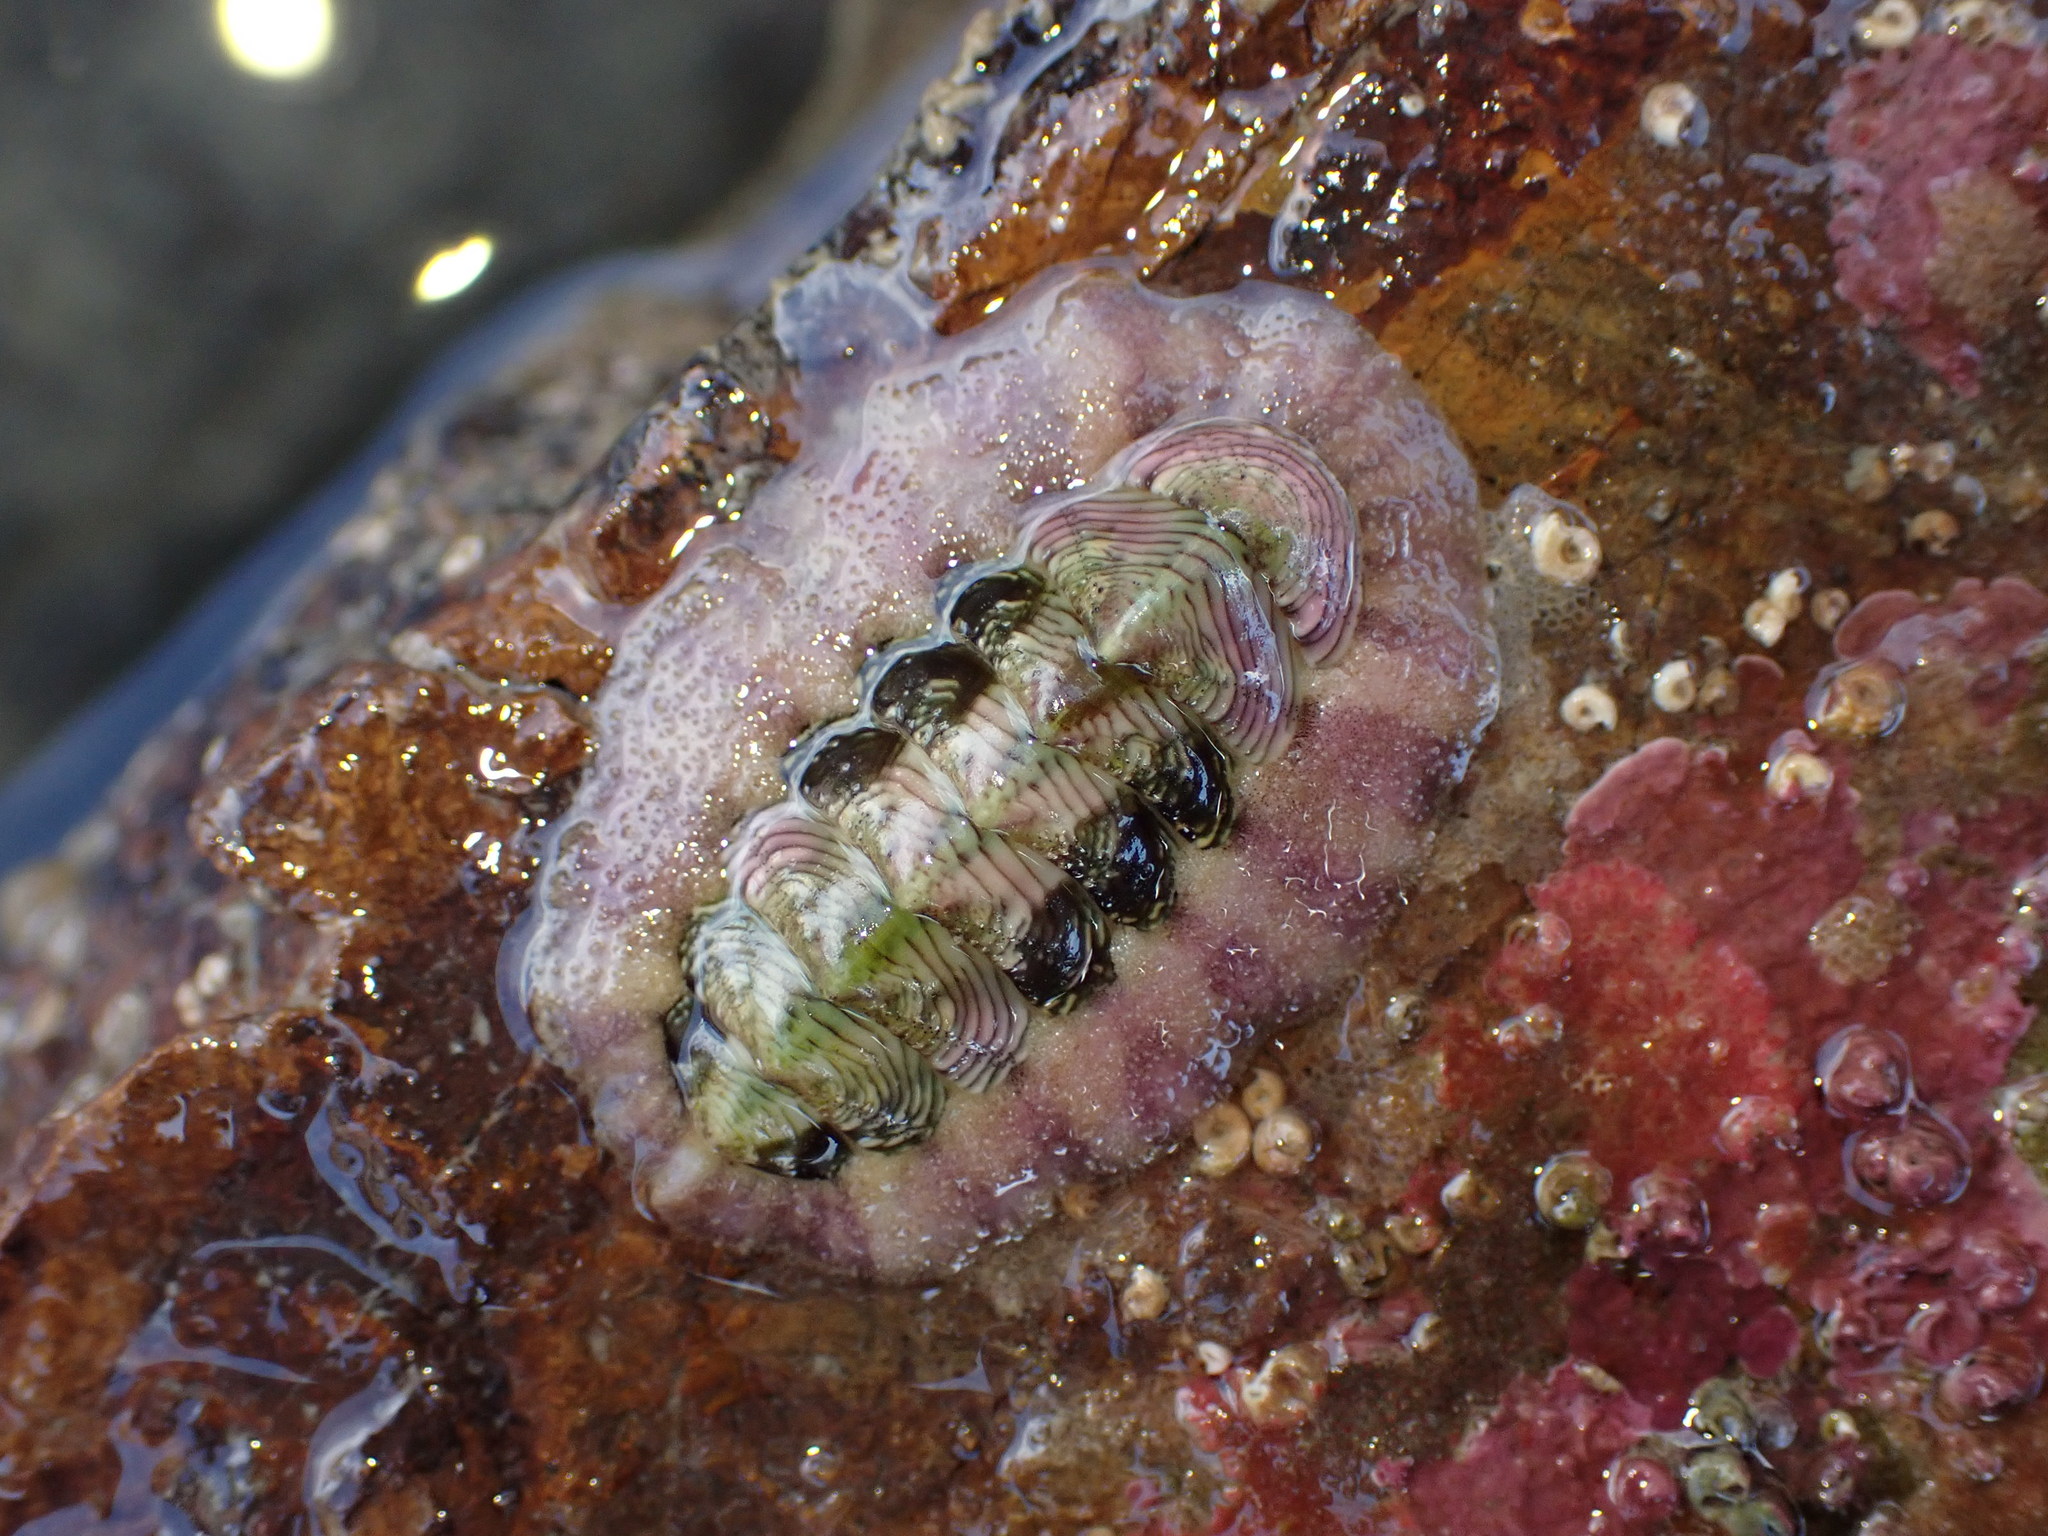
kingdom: Animalia
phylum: Mollusca
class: Polyplacophora
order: Chitonida
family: Chitonidae
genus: Onithochiton
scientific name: Onithochiton neglectus
